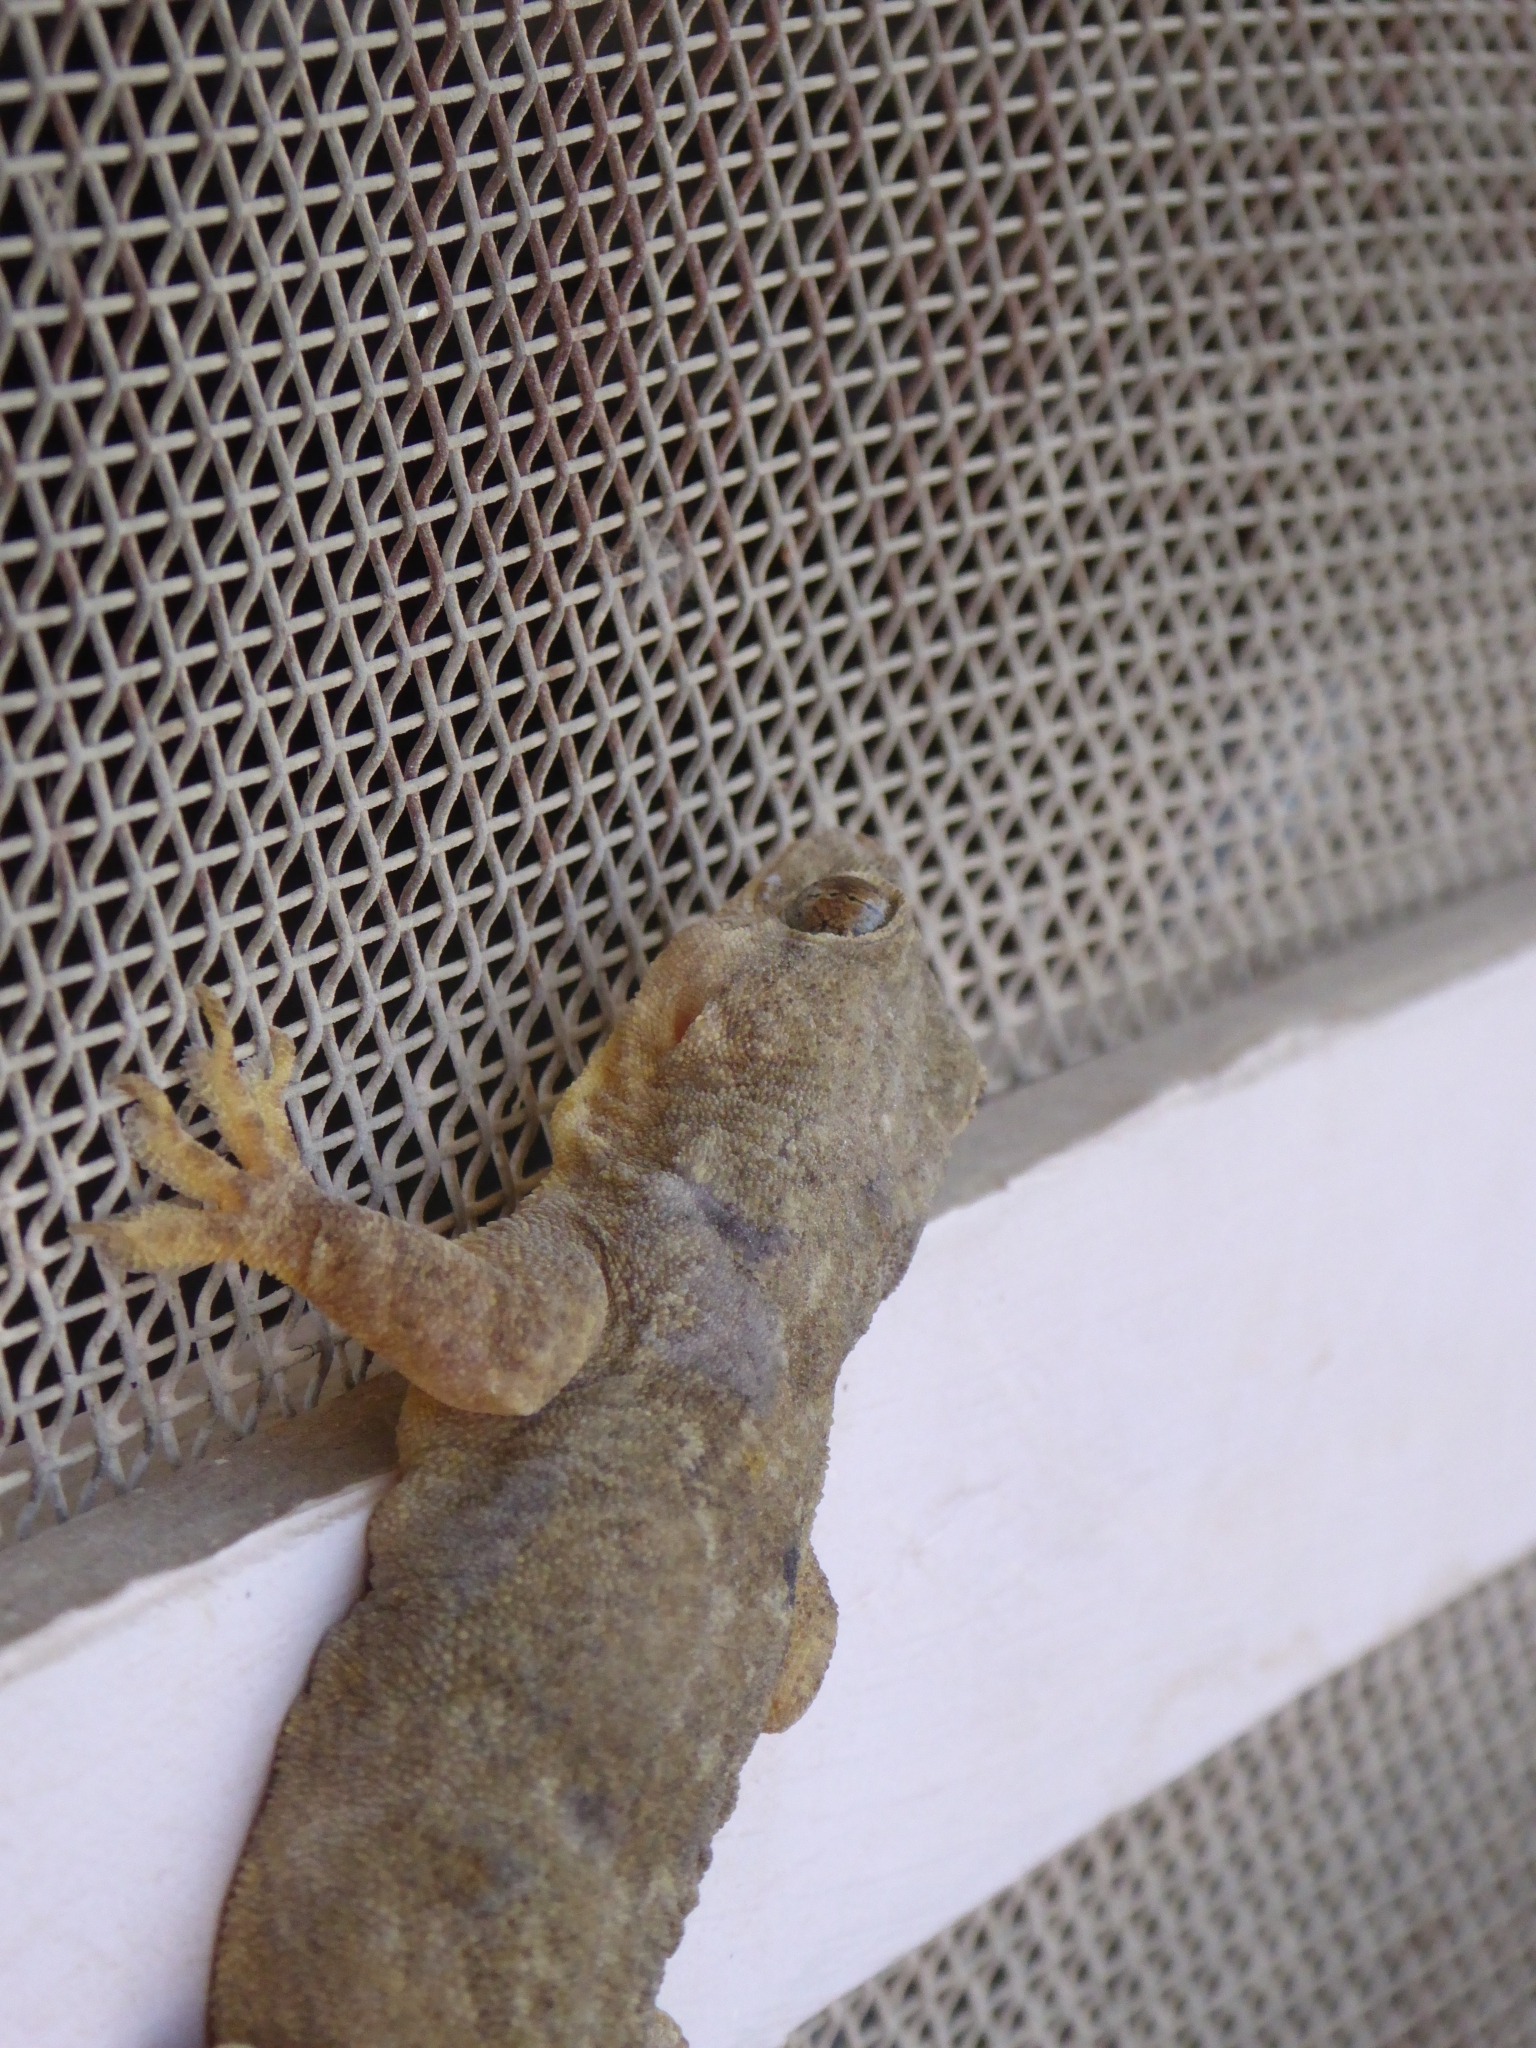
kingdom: Animalia
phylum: Chordata
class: Squamata
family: Gekkonidae
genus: Hemidactylus
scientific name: Hemidactylus flaviviridis
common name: Northern house gecko
